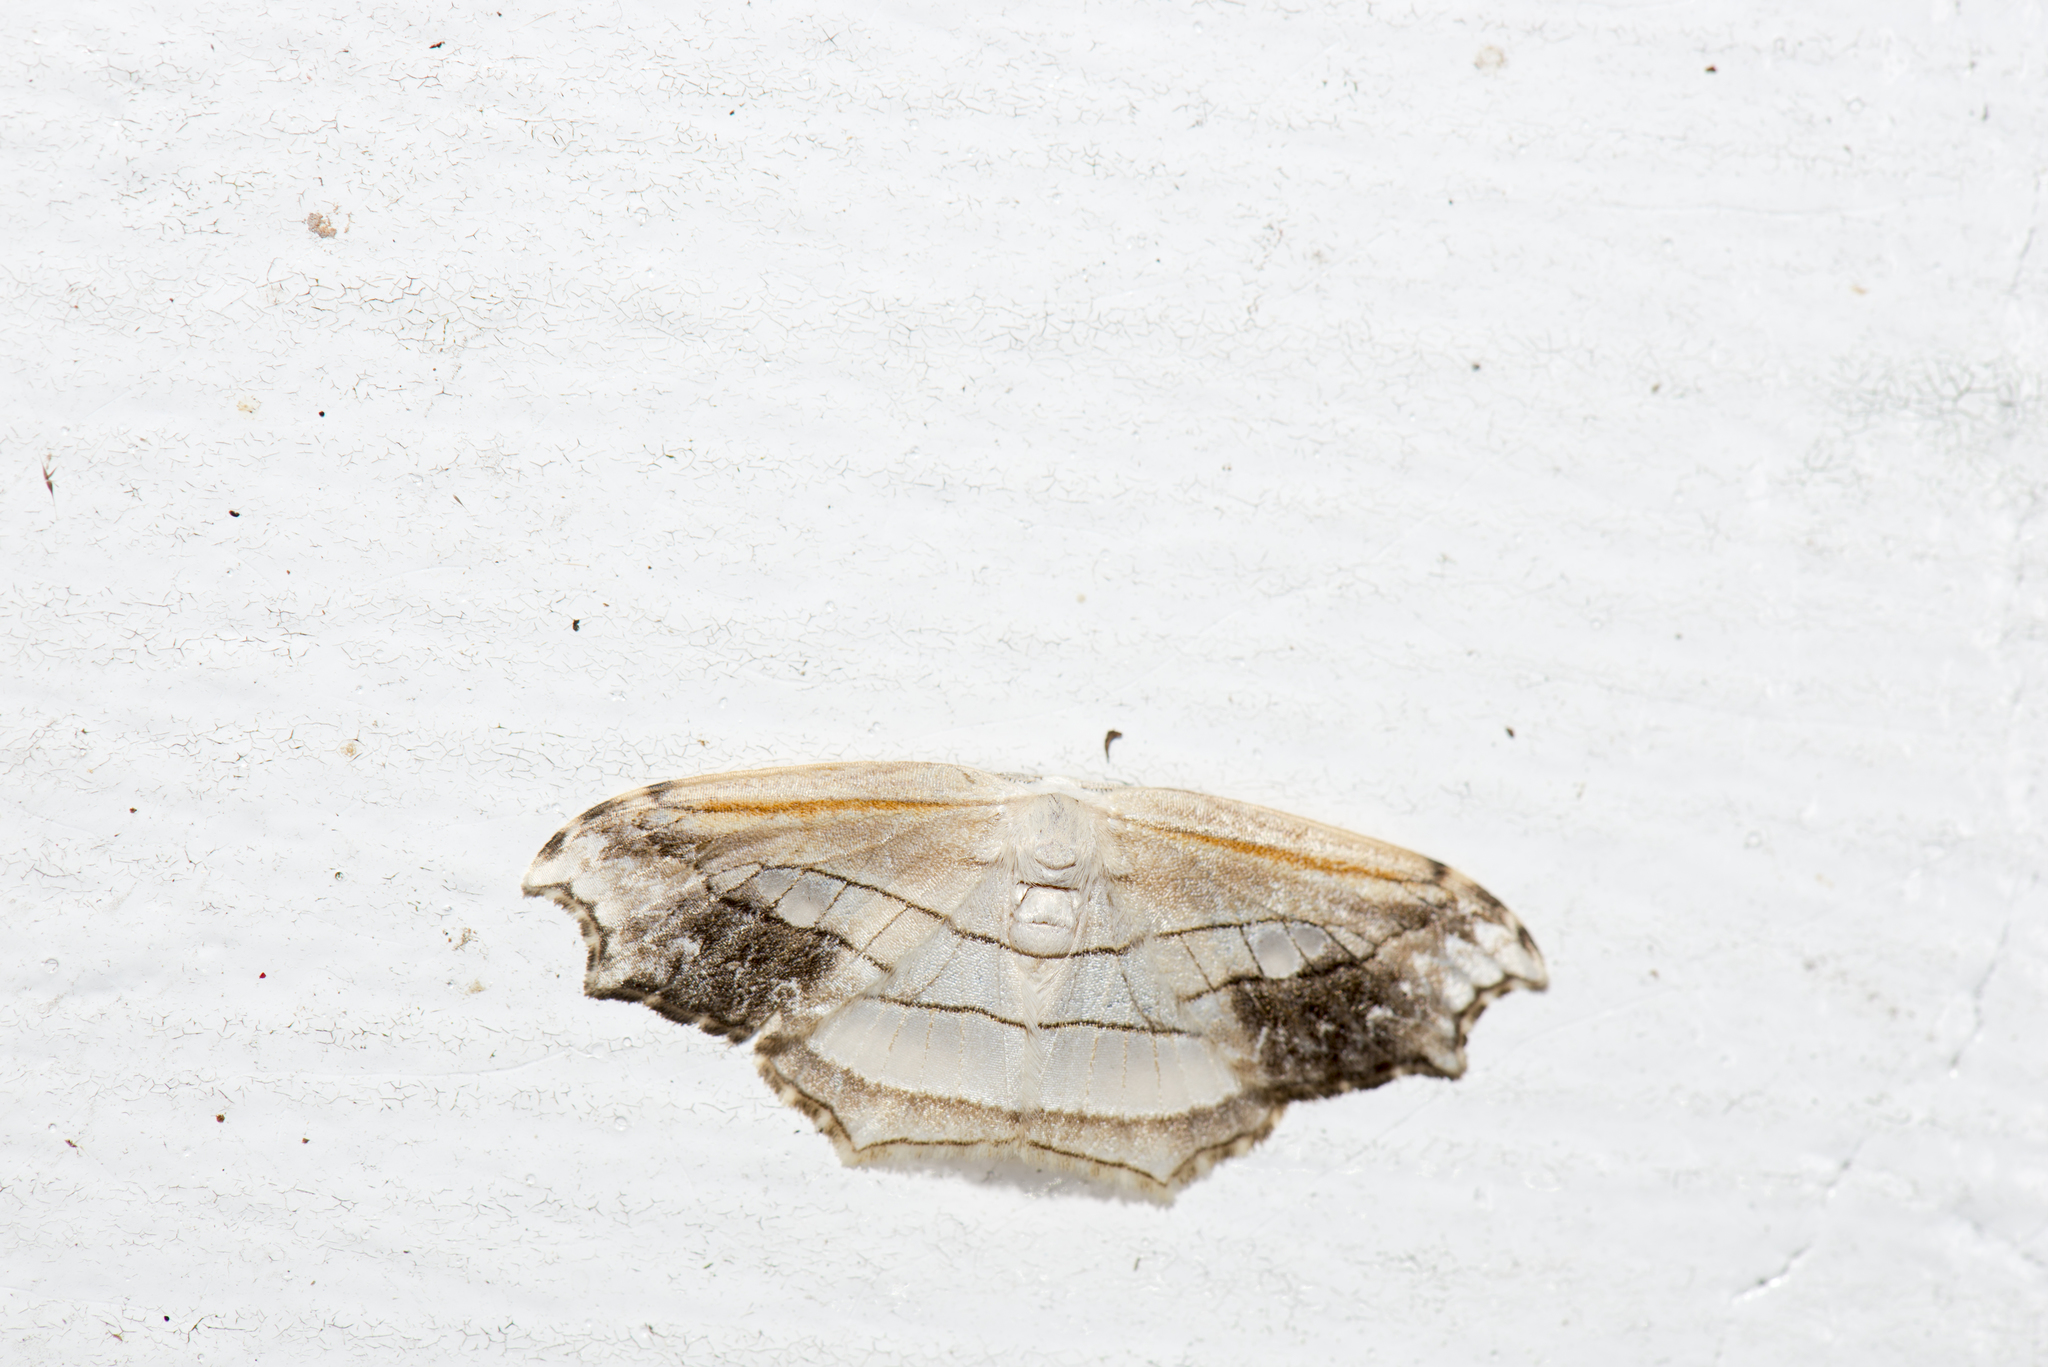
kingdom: Animalia
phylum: Arthropoda
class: Insecta
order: Lepidoptera
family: Drepanidae
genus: Leucoblepsis
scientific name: Leucoblepsis taiwanensis
